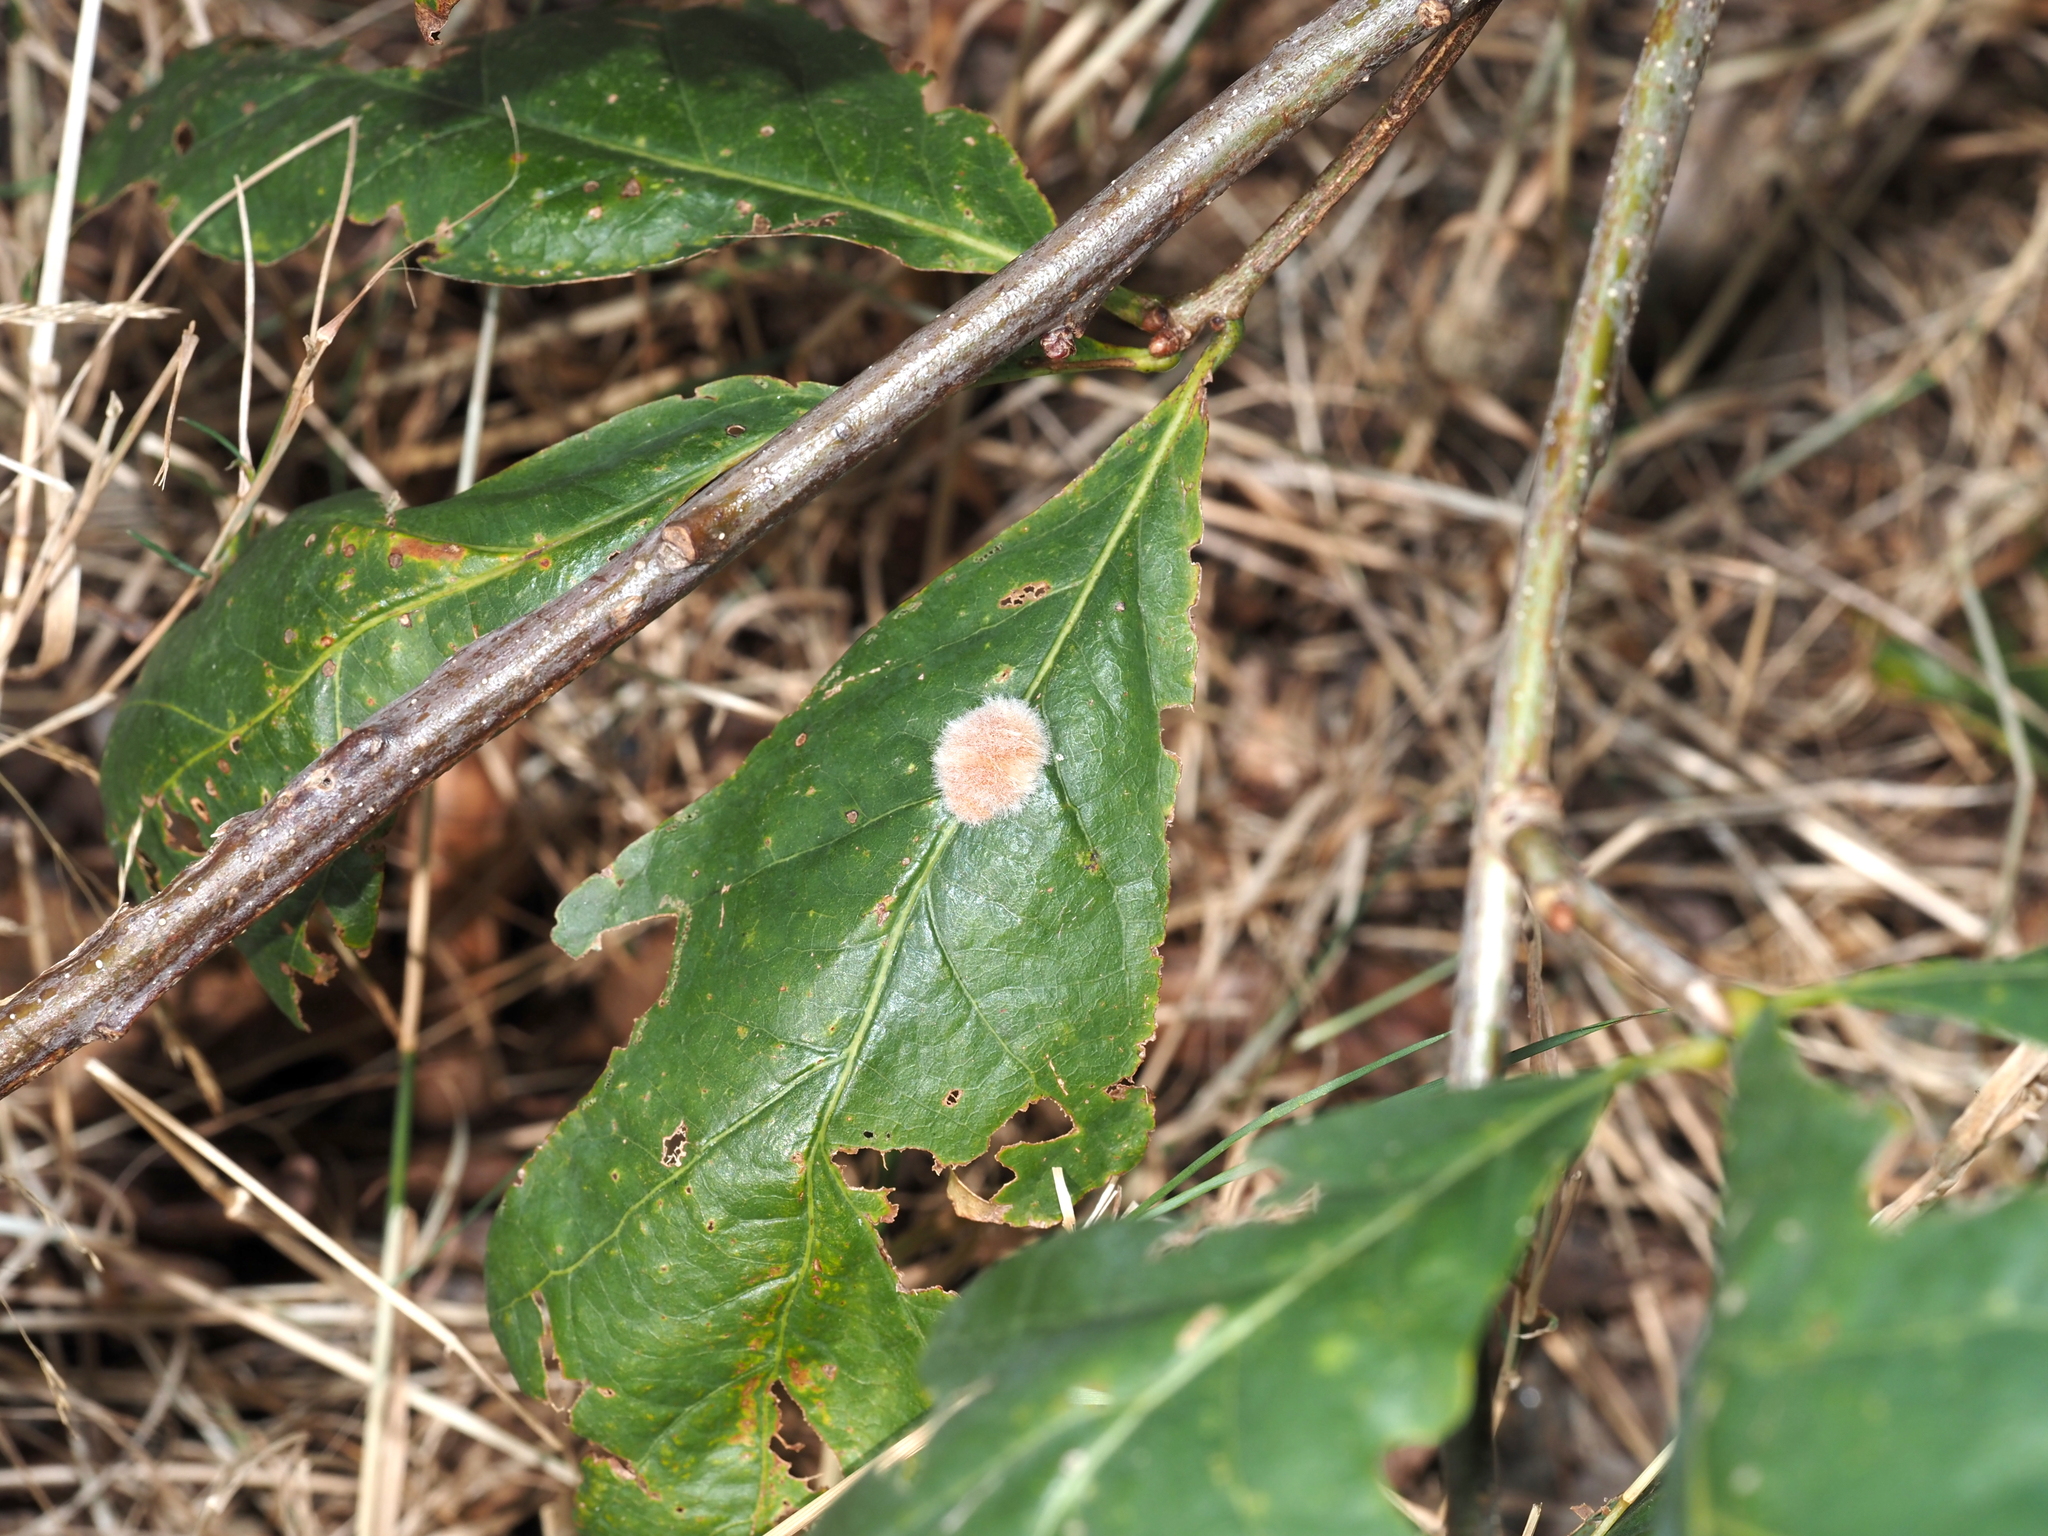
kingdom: Animalia
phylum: Arthropoda
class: Insecta
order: Hymenoptera
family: Cynipidae
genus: Andricus
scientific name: Andricus quercusflocci
